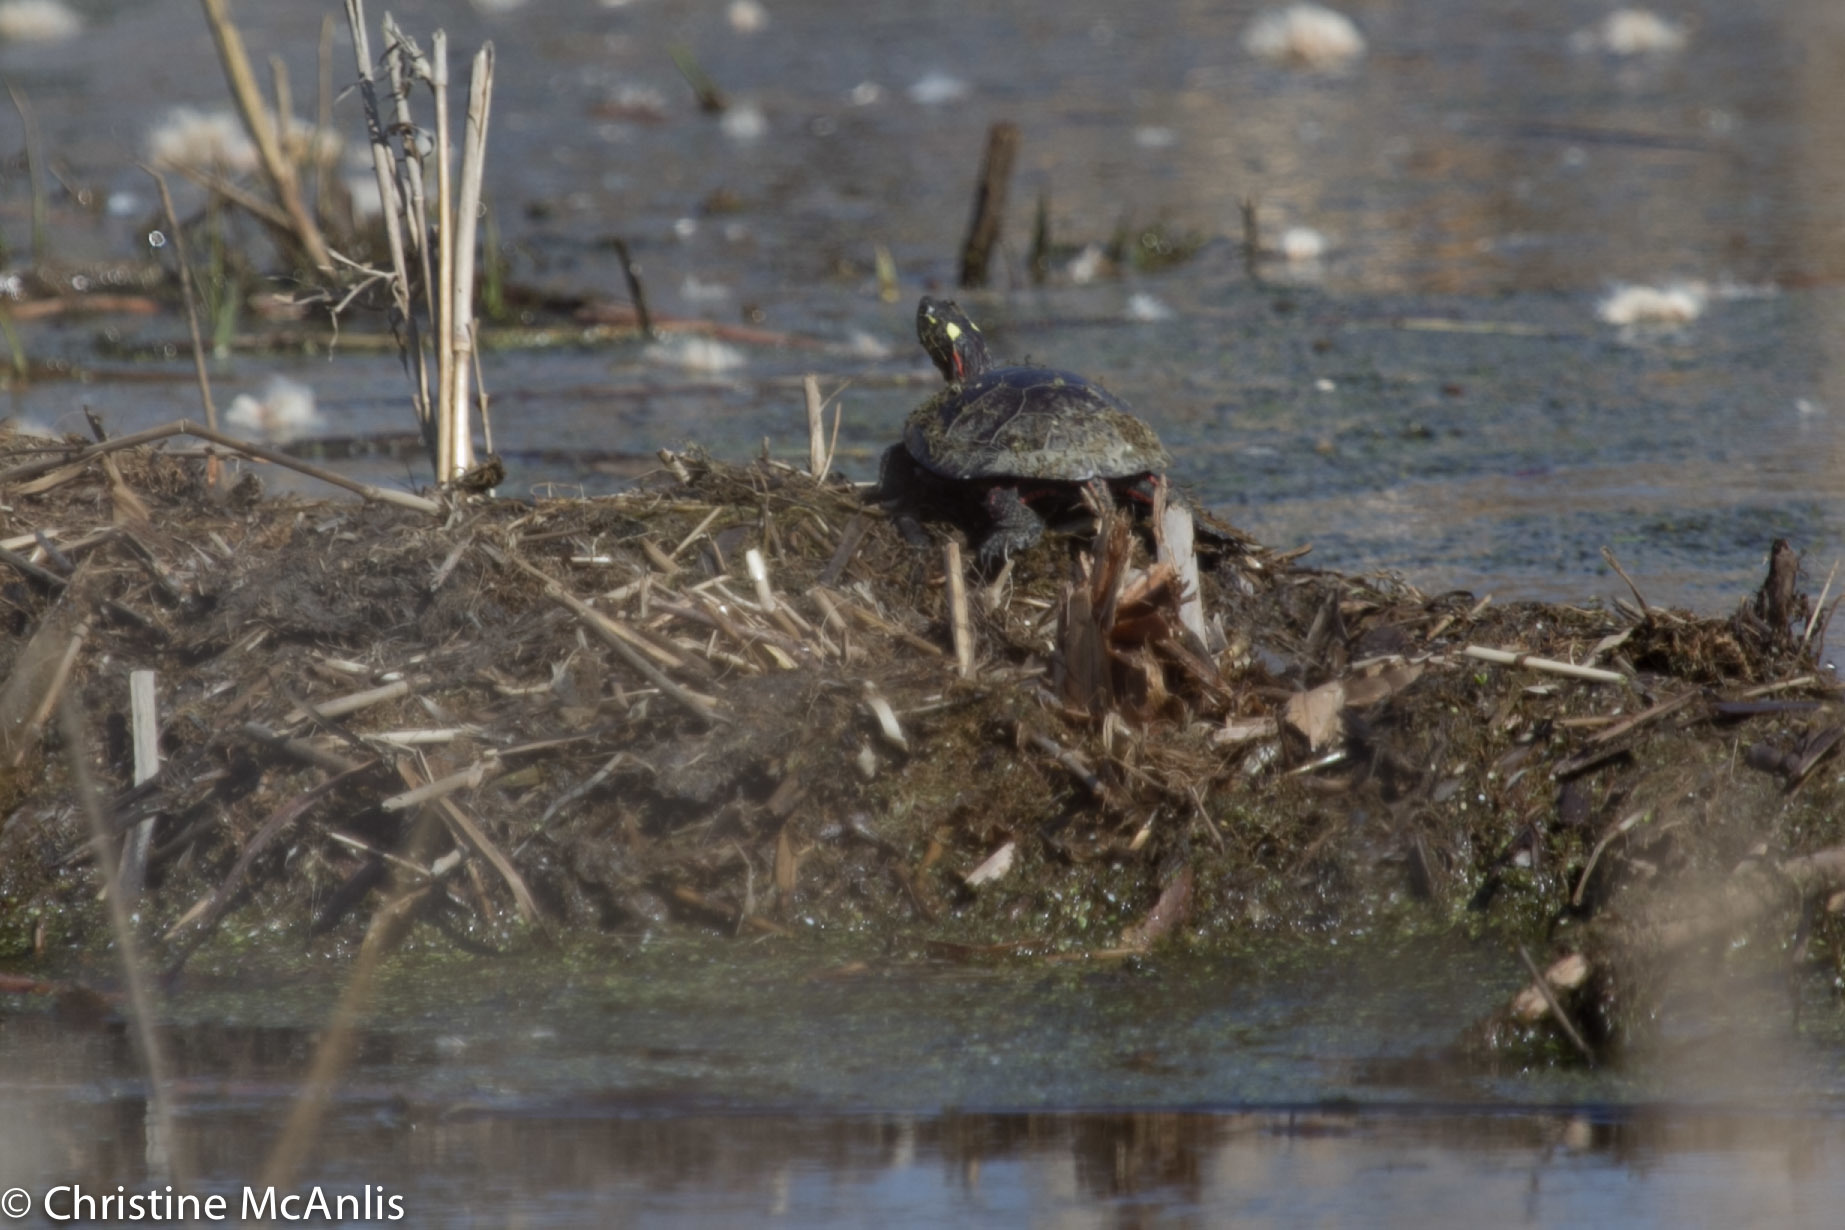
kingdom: Animalia
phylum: Chordata
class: Testudines
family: Emydidae
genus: Chrysemys
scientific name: Chrysemys picta
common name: Painted turtle
